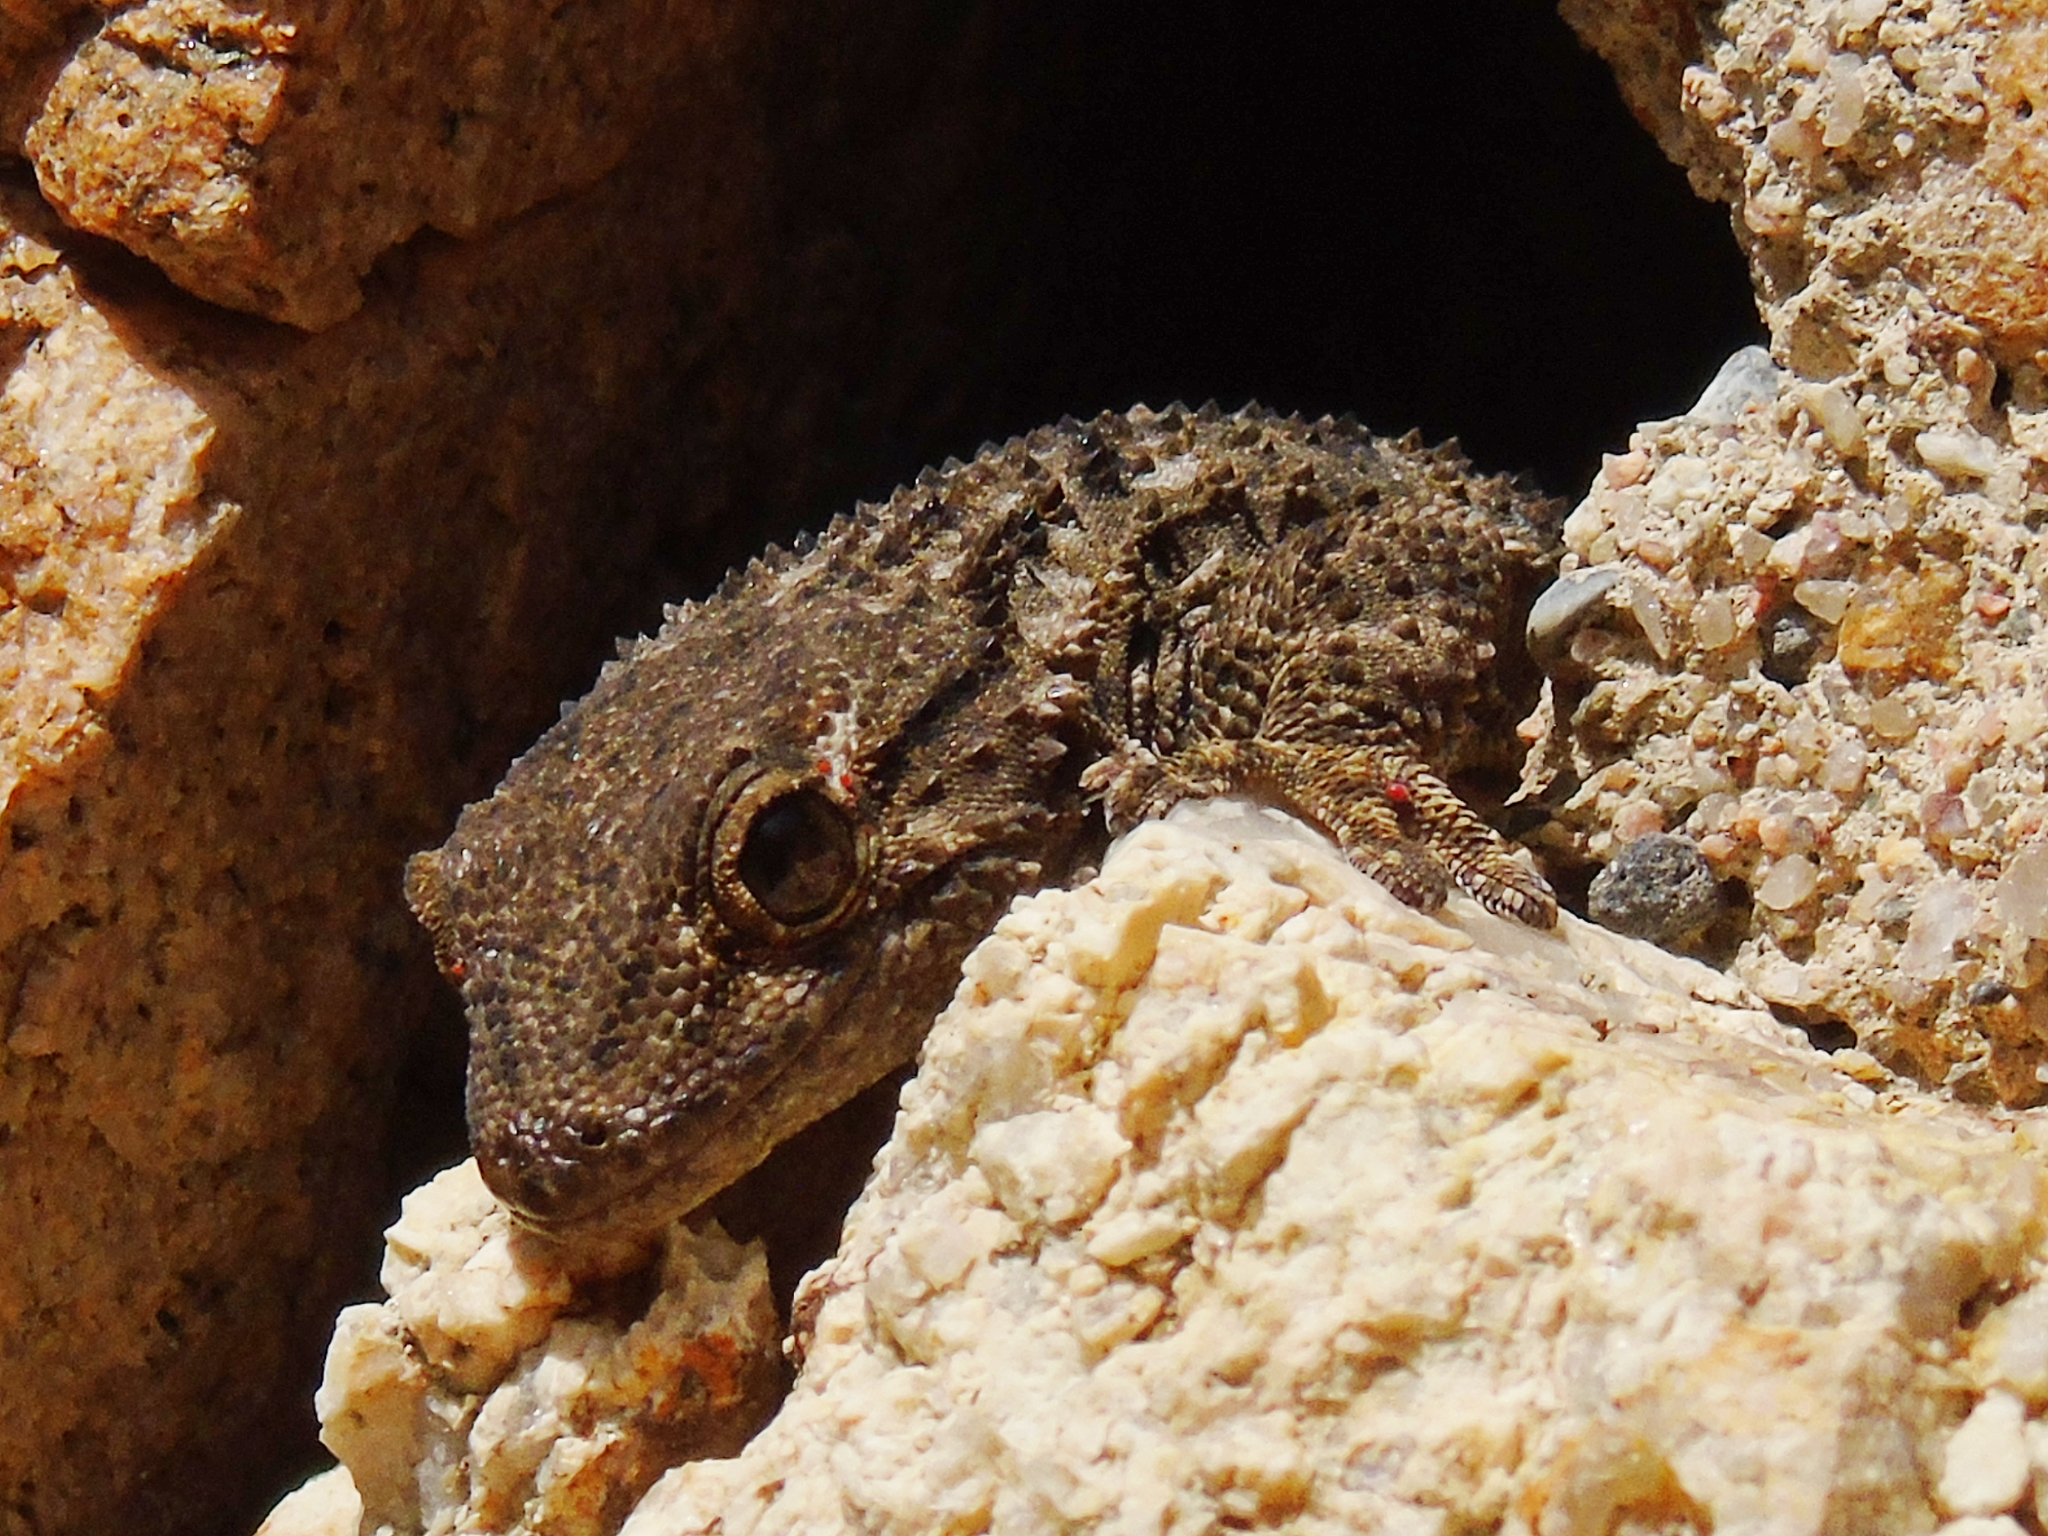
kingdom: Animalia
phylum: Chordata
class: Squamata
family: Phyllodactylidae
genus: Tarentola
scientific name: Tarentola mauritanica
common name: Moorish gecko
